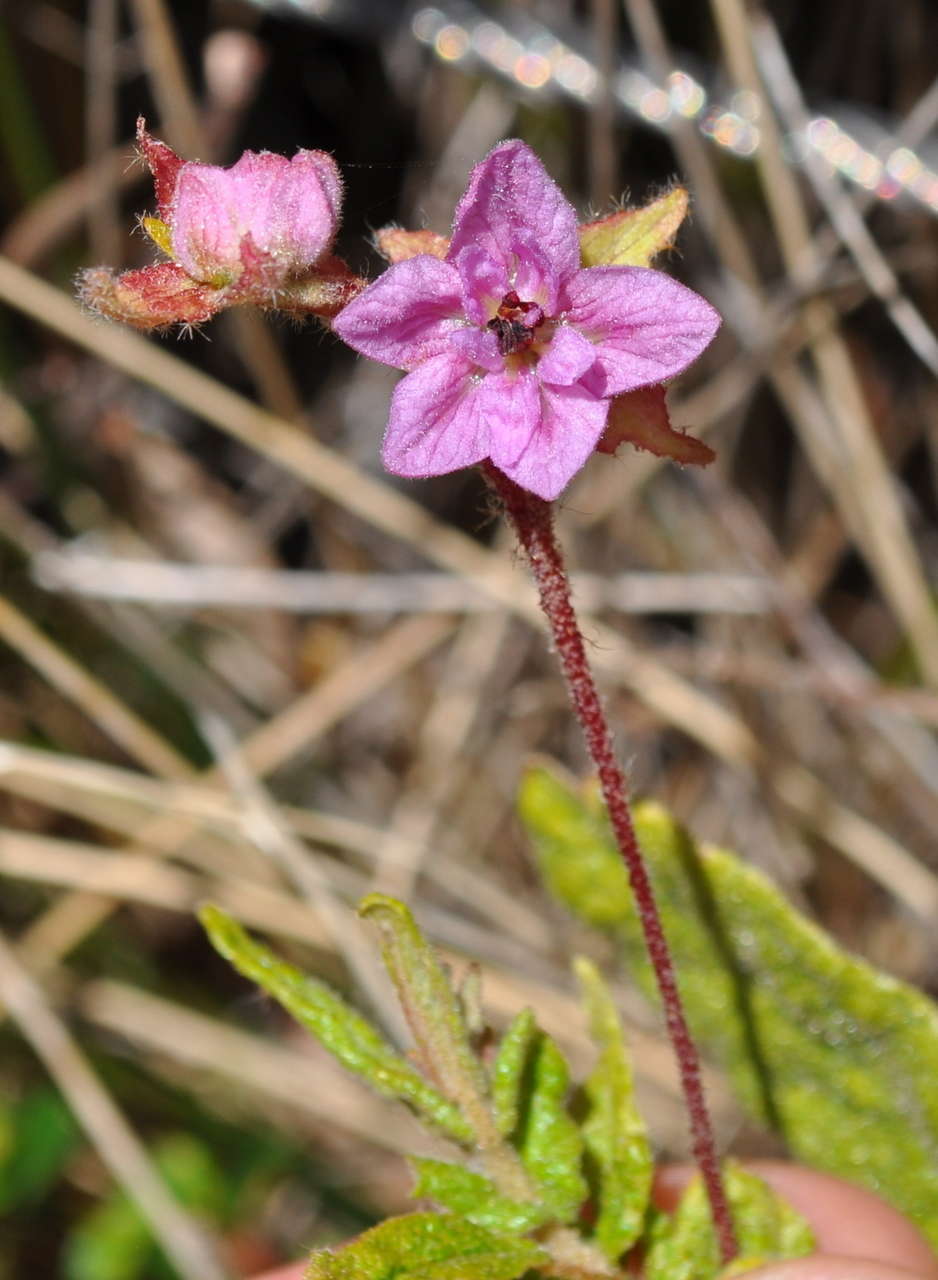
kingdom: Plantae
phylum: Tracheophyta
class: Magnoliopsida
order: Malvales
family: Malvaceae
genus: Thomasia
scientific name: Thomasia petalocalyx
